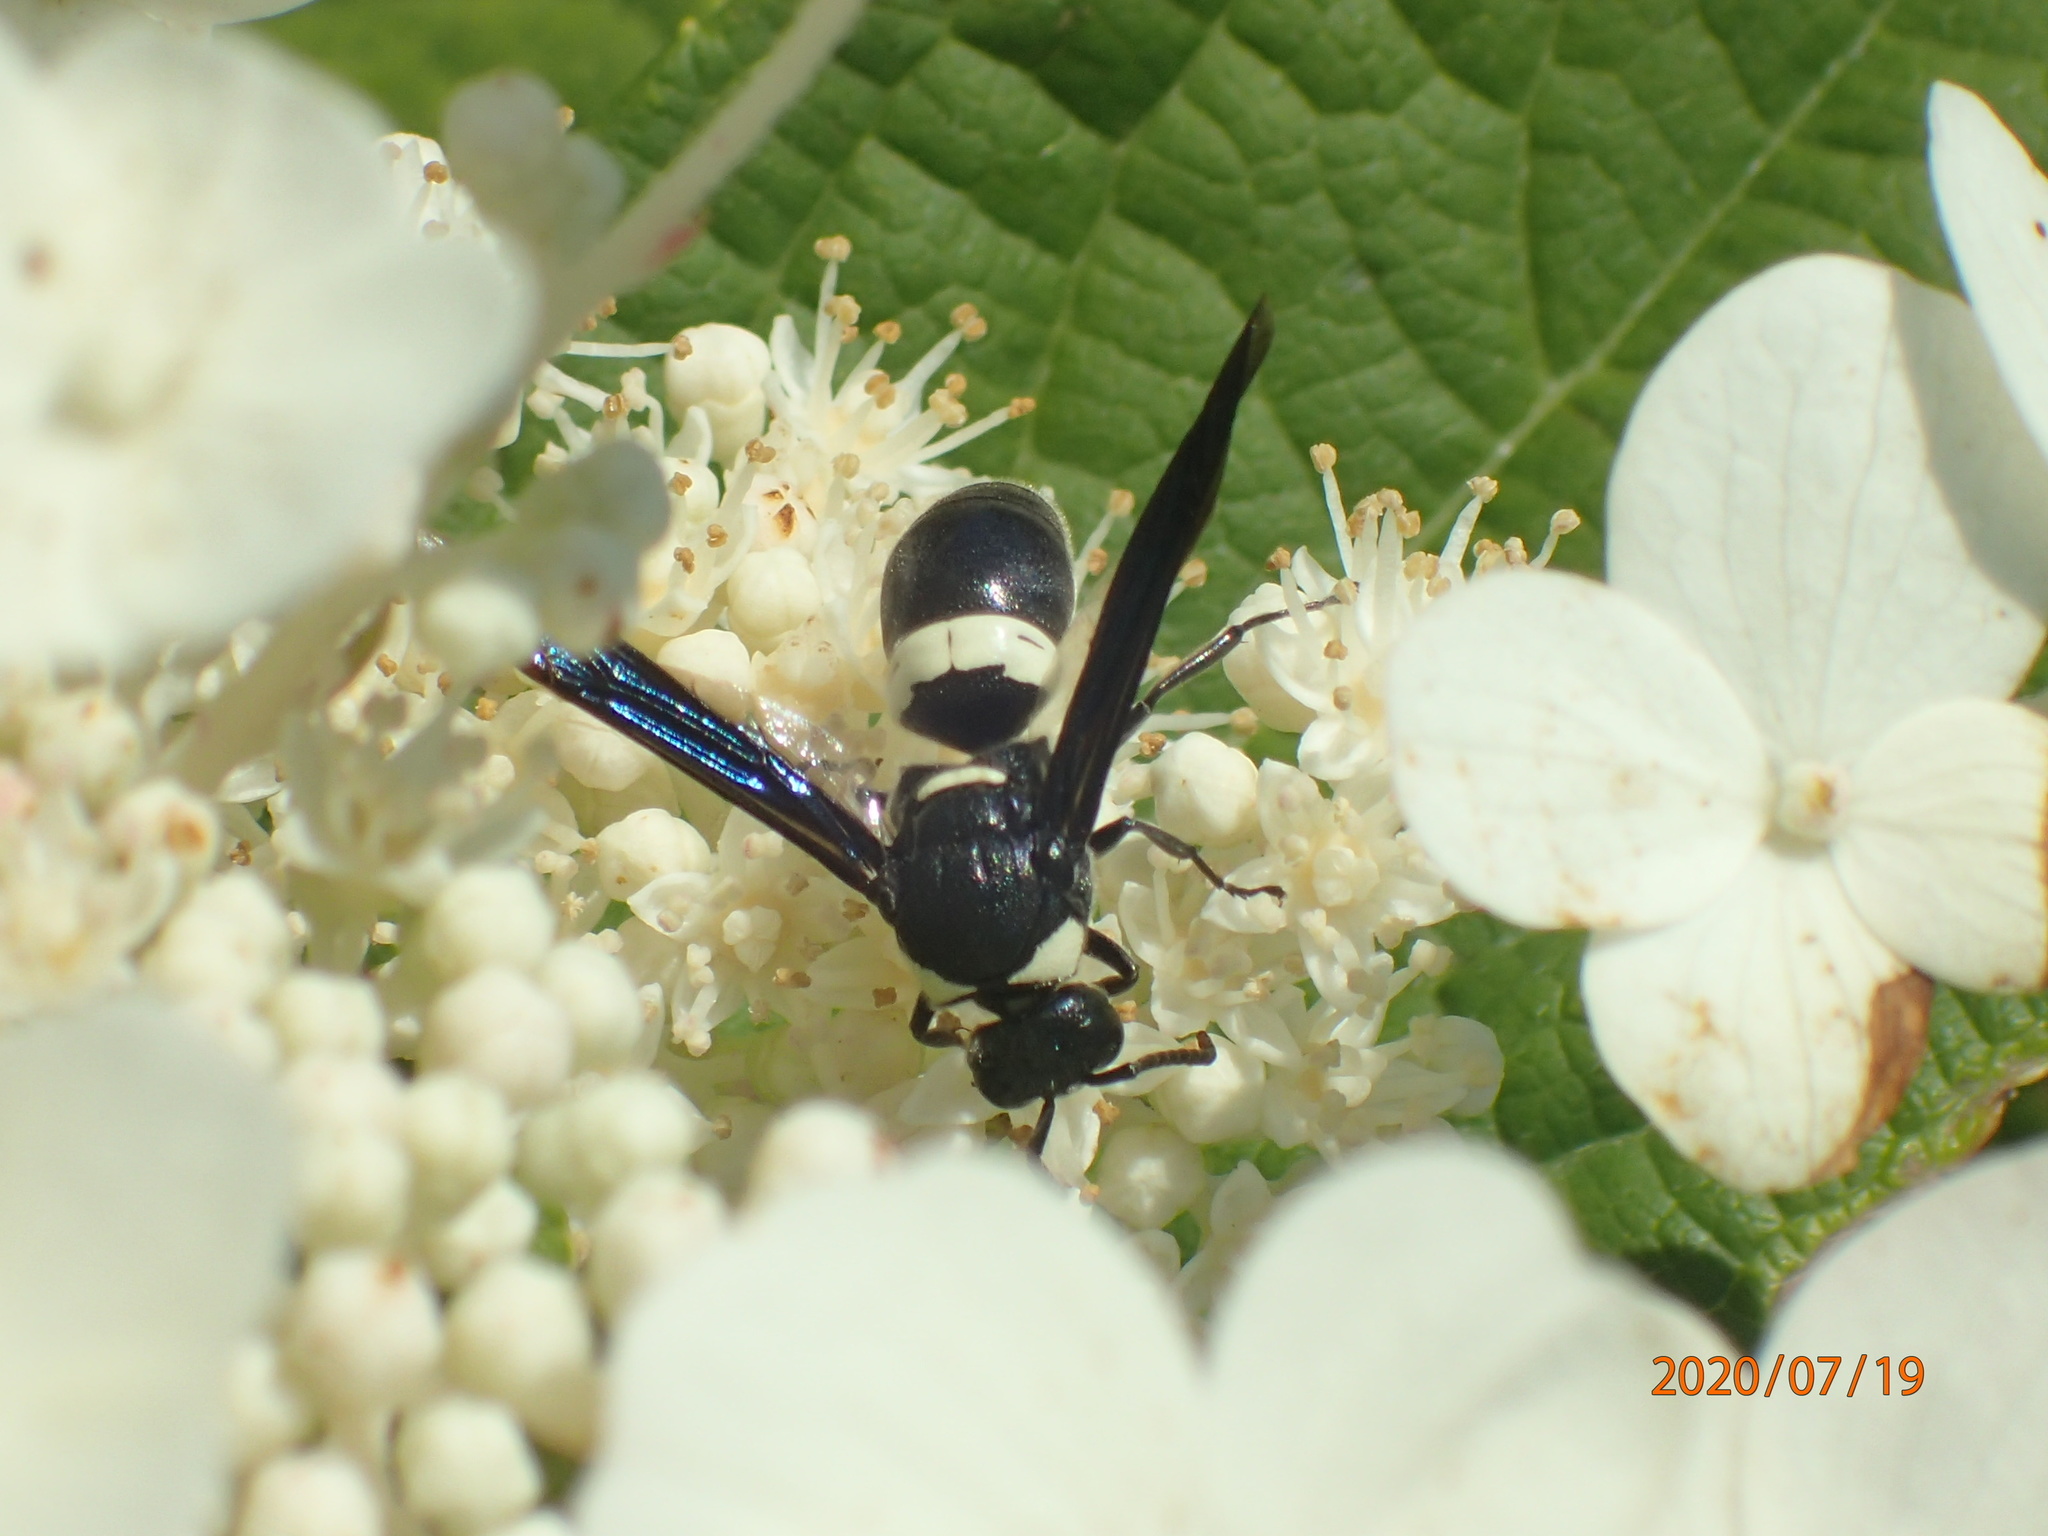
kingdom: Animalia
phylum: Arthropoda
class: Insecta
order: Hymenoptera
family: Eumenidae
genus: Monobia
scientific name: Monobia quadridens
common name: Four-toothed mason wasp
